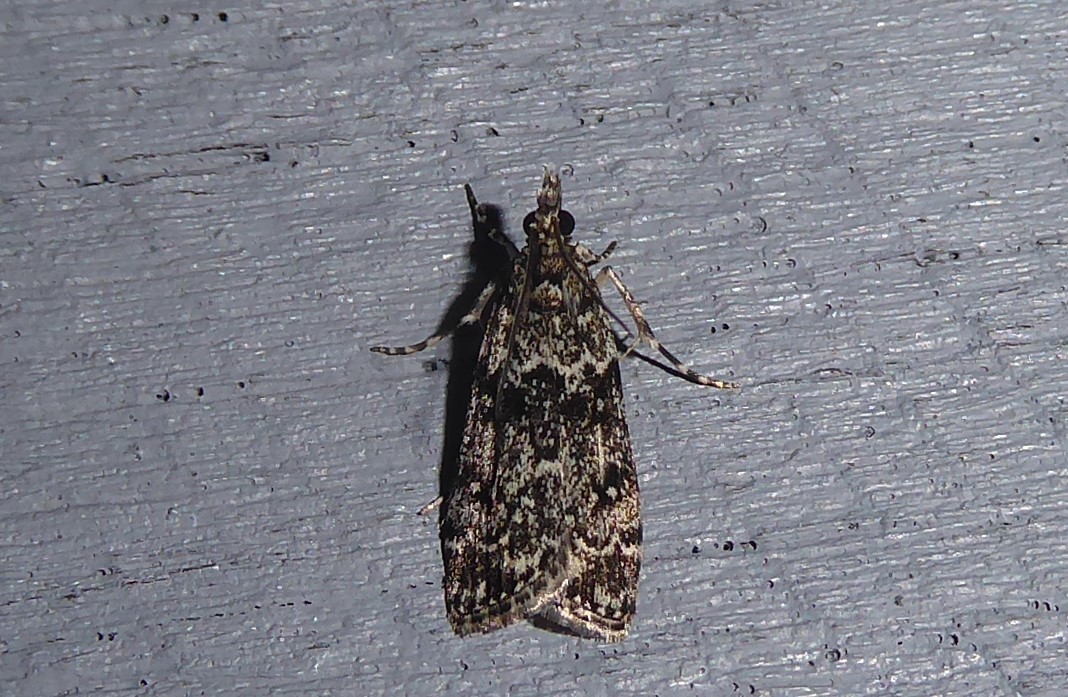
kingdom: Animalia
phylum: Arthropoda
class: Insecta
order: Lepidoptera
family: Crambidae
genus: Eudonia
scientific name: Eudonia philerga
